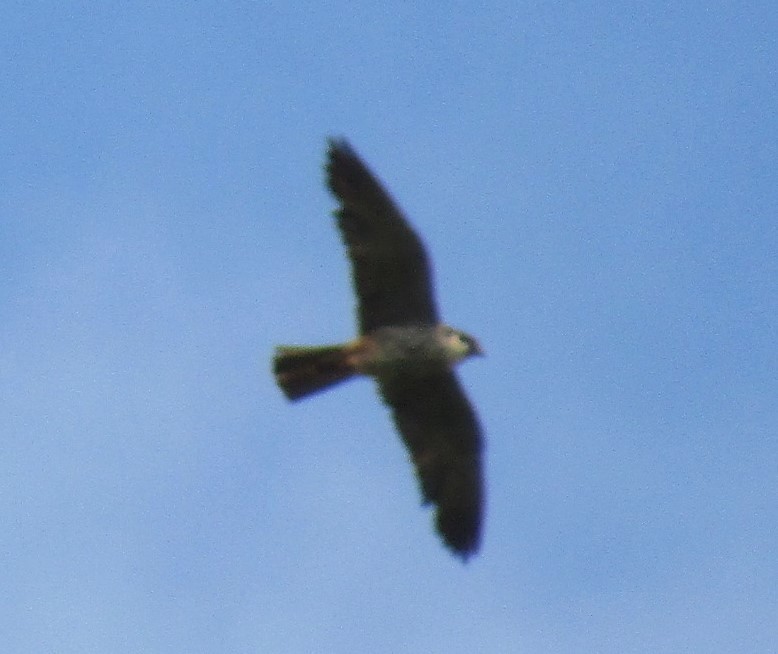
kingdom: Animalia
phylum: Chordata
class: Aves
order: Falconiformes
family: Falconidae
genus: Falco
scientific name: Falco subbuteo
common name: Eurasian hobby
